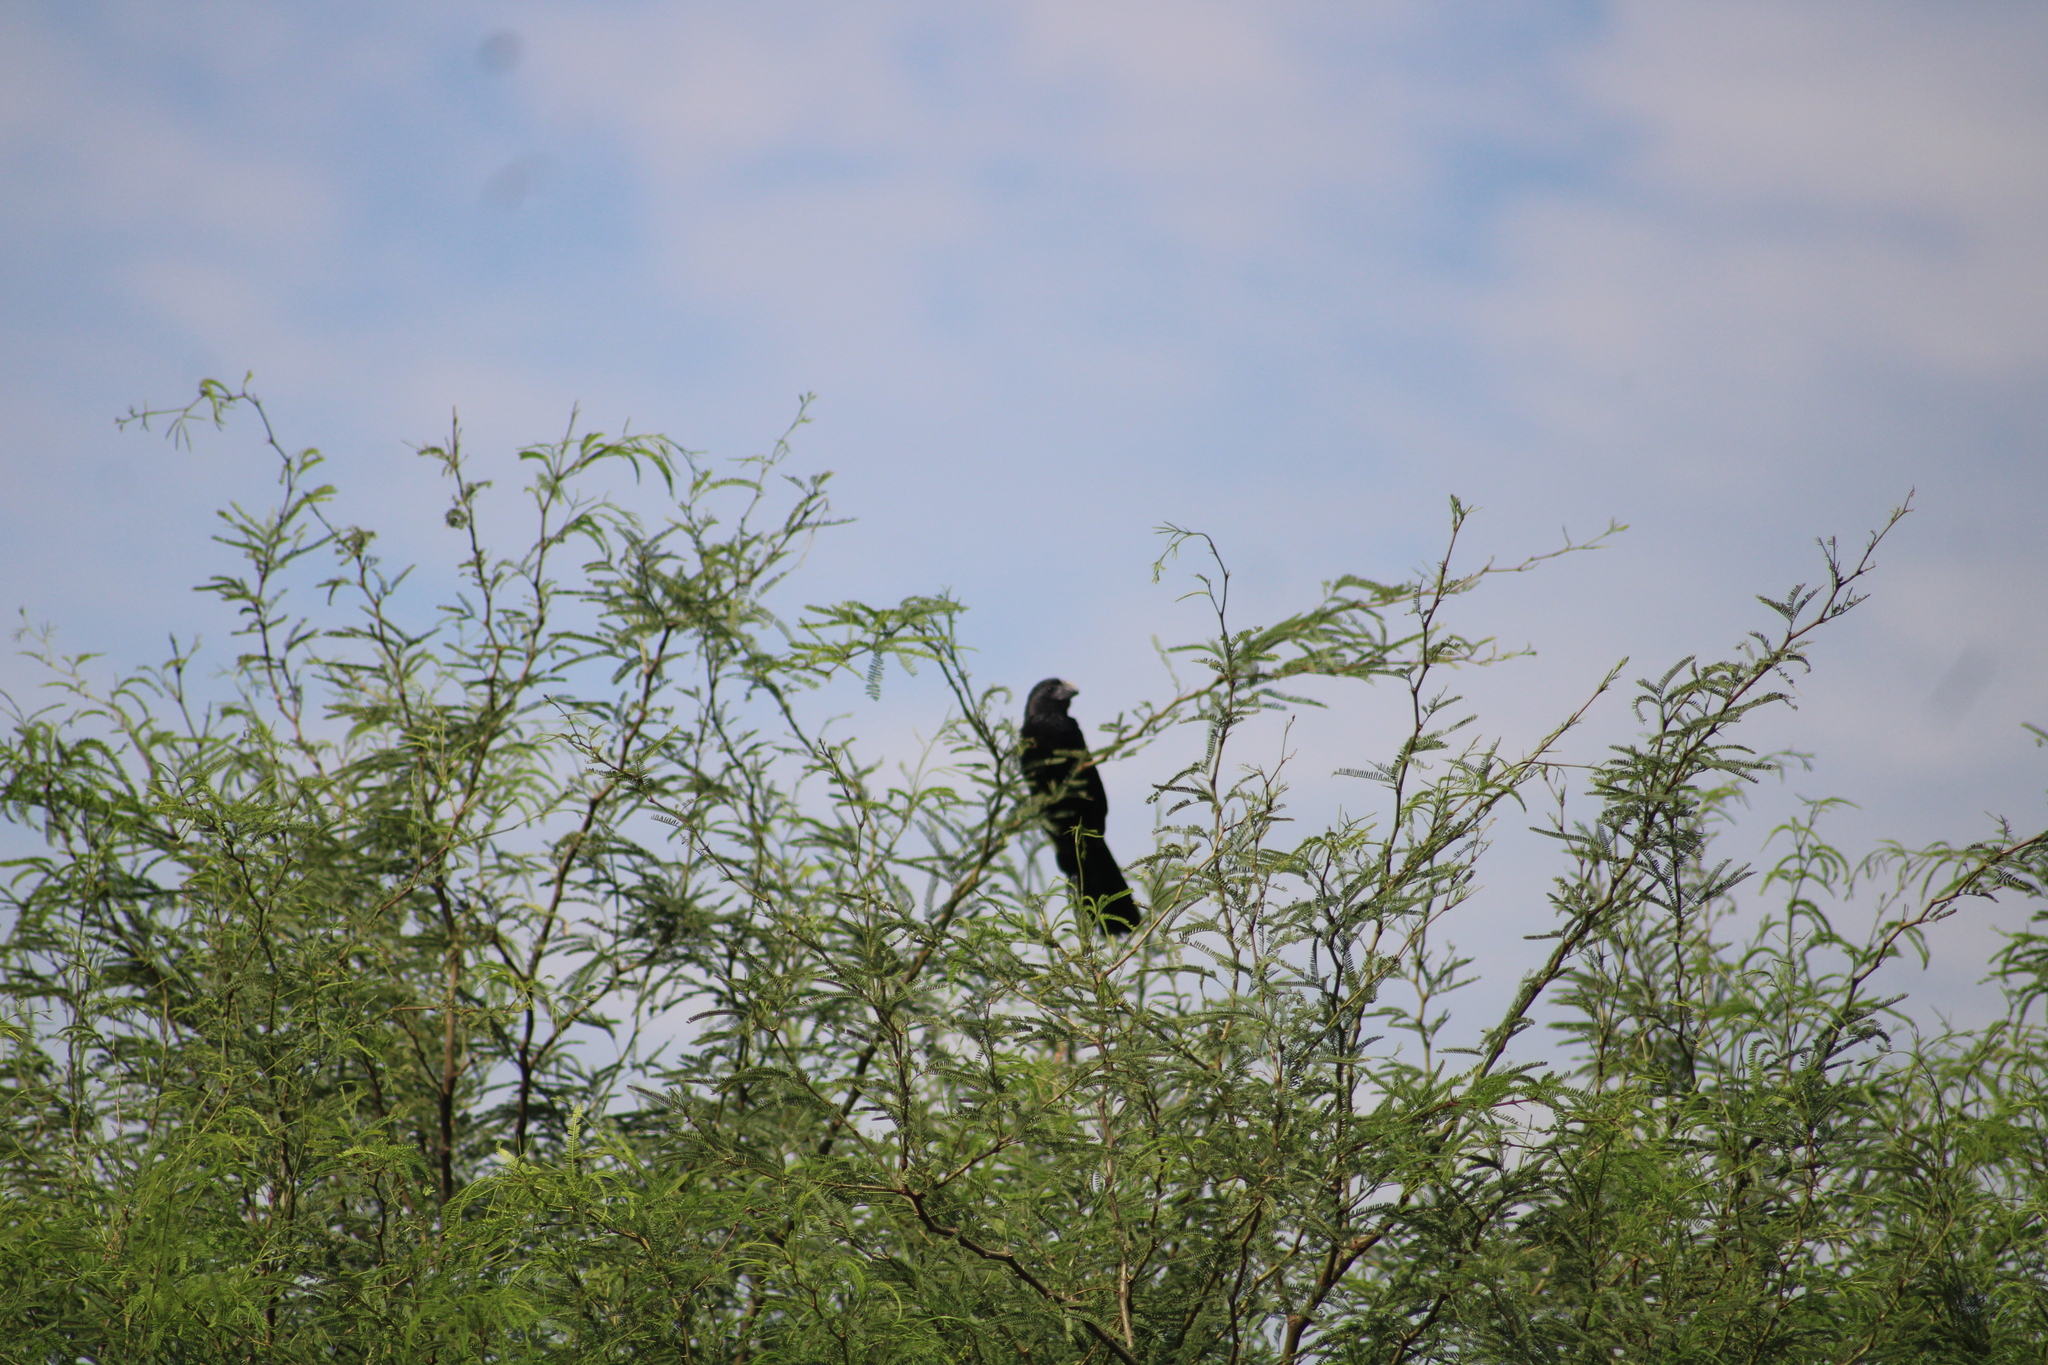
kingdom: Animalia
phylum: Chordata
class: Aves
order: Cuculiformes
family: Cuculidae
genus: Crotophaga
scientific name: Crotophaga sulcirostris
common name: Groove-billed ani
